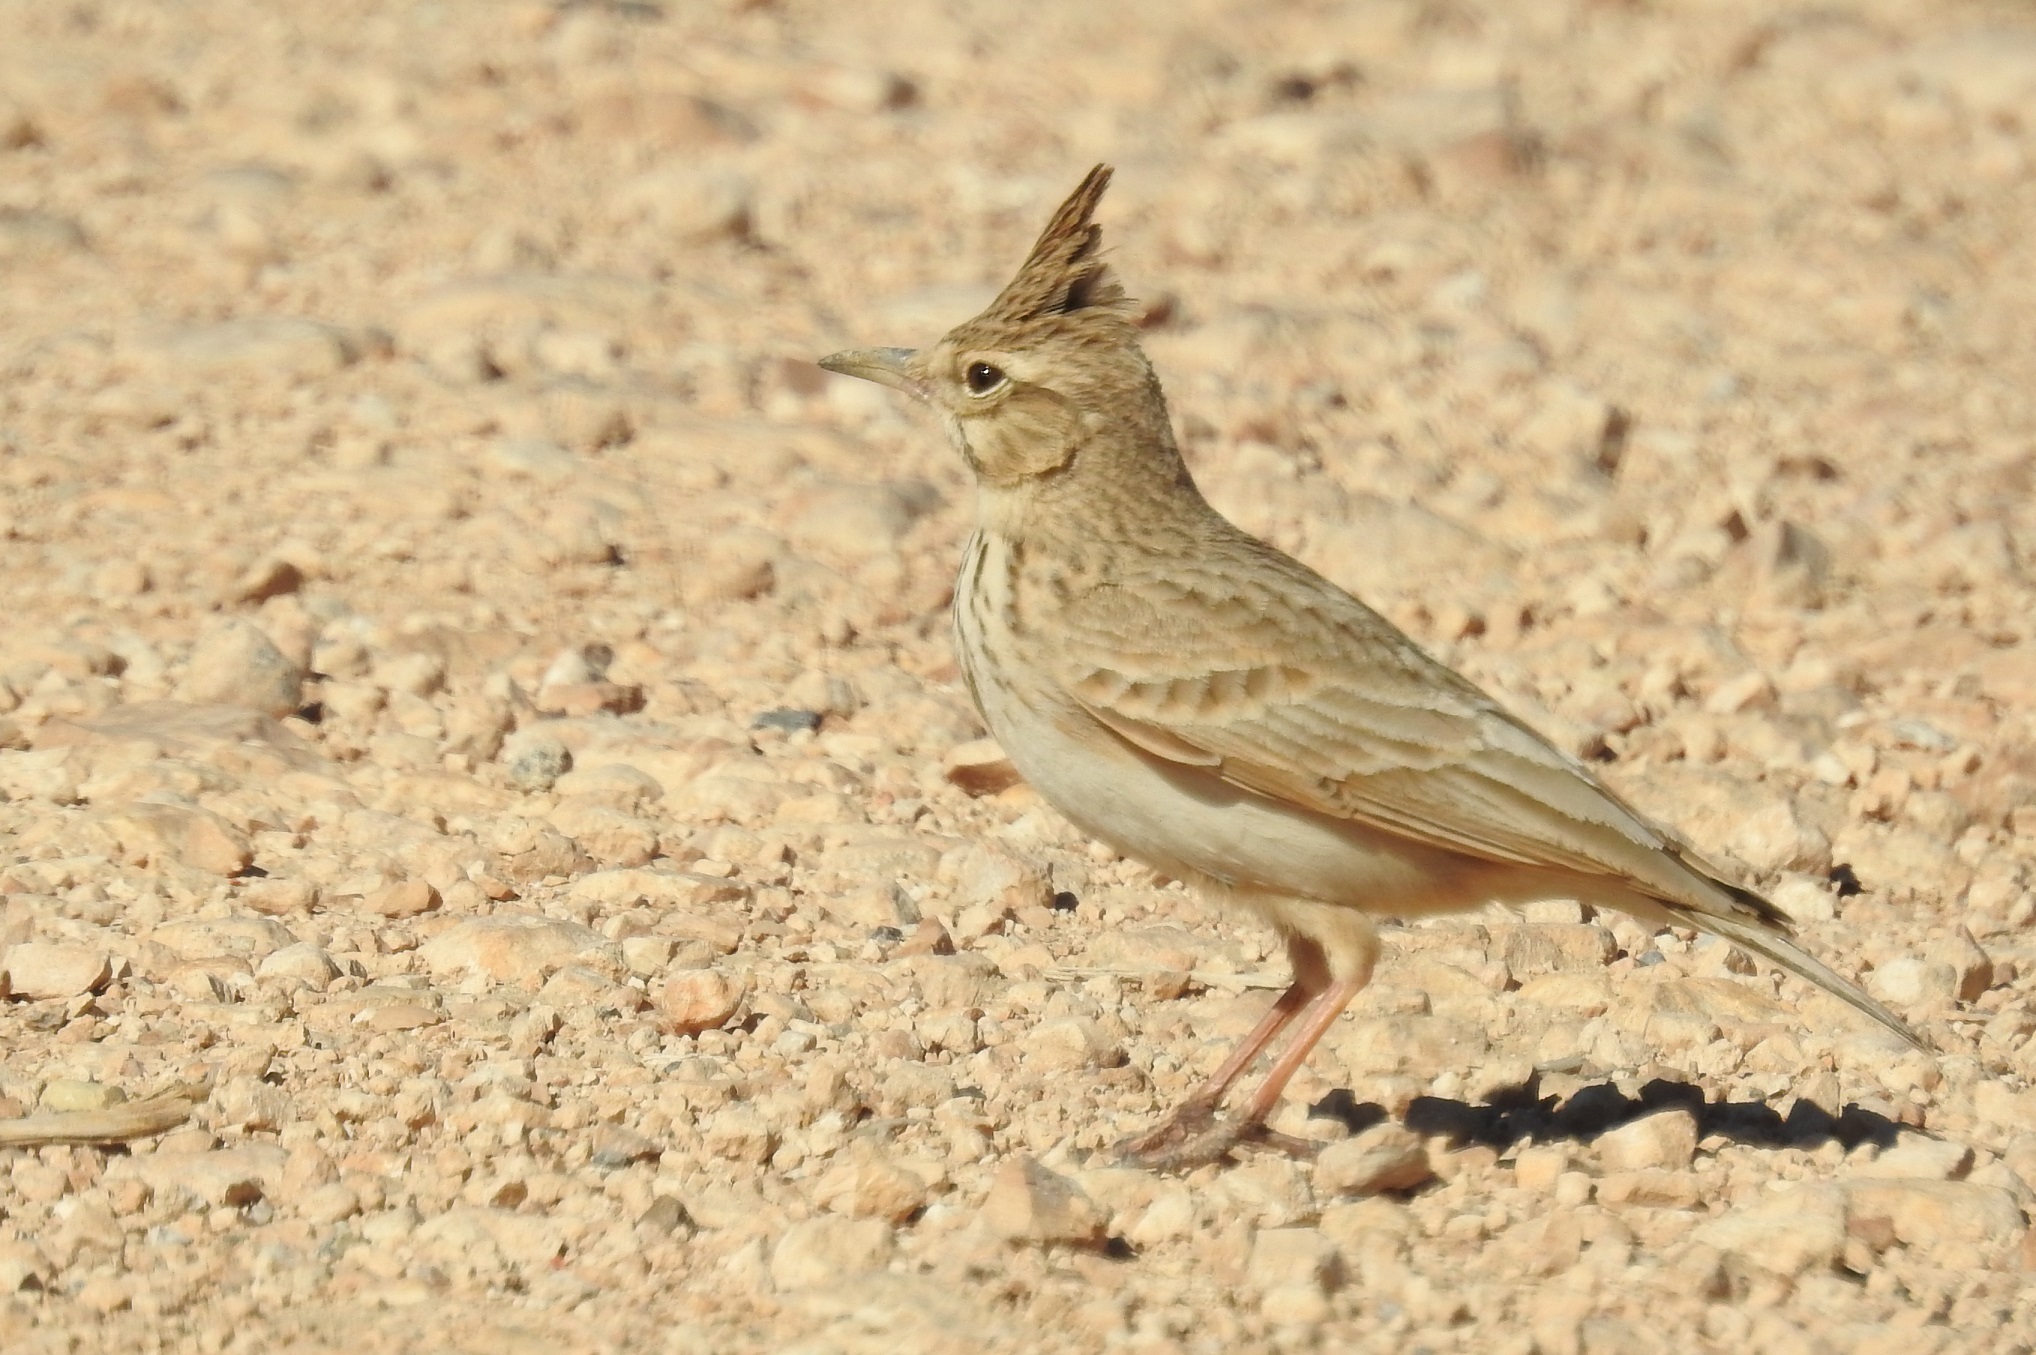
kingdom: Animalia
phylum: Chordata
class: Aves
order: Passeriformes
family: Alaudidae
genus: Galerida
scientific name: Galerida cristata
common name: Crested lark
